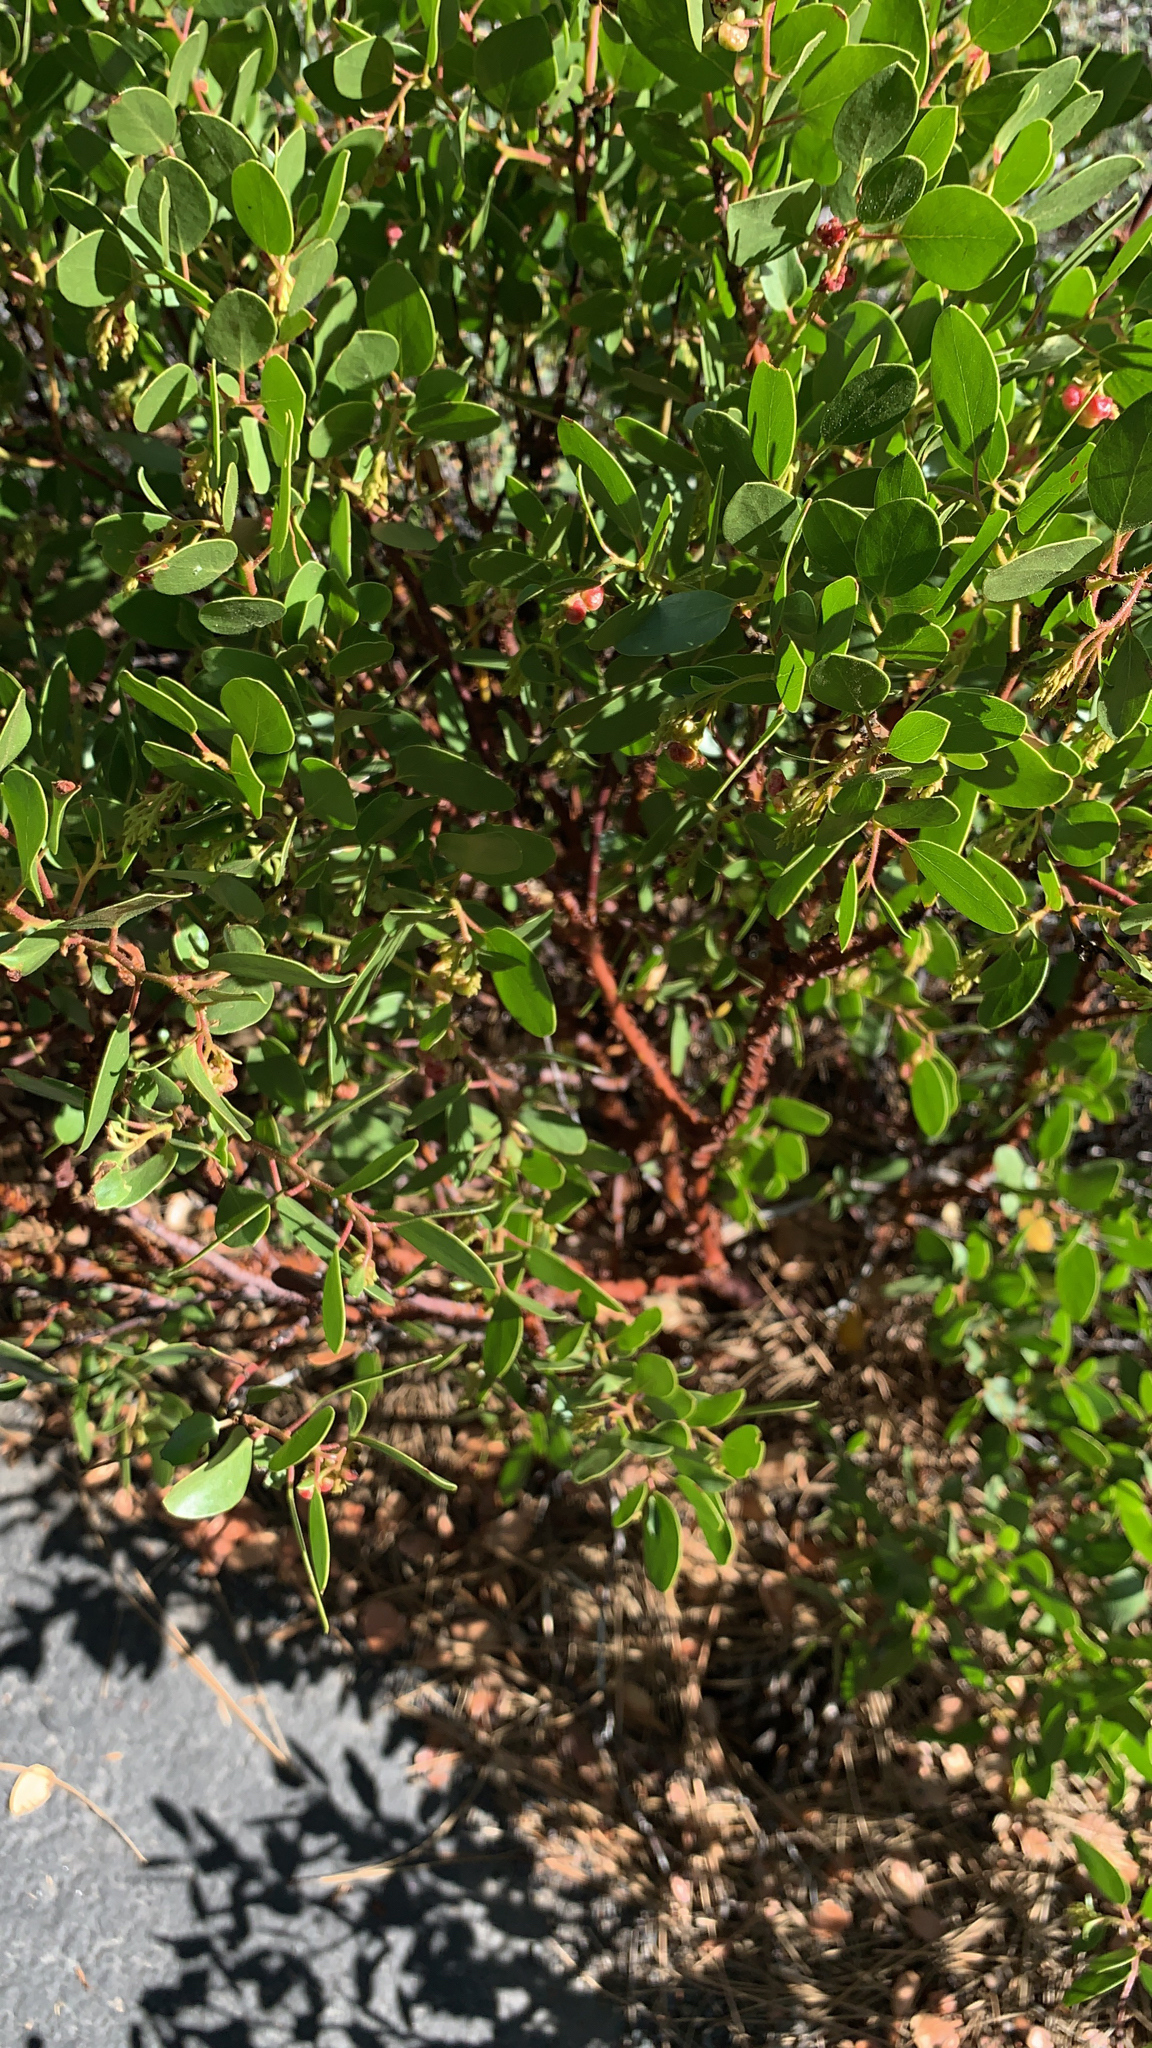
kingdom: Plantae
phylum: Tracheophyta
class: Magnoliopsida
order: Ericales
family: Ericaceae
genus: Arctostaphylos
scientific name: Arctostaphylos patula
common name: Green-leaf manzanita
